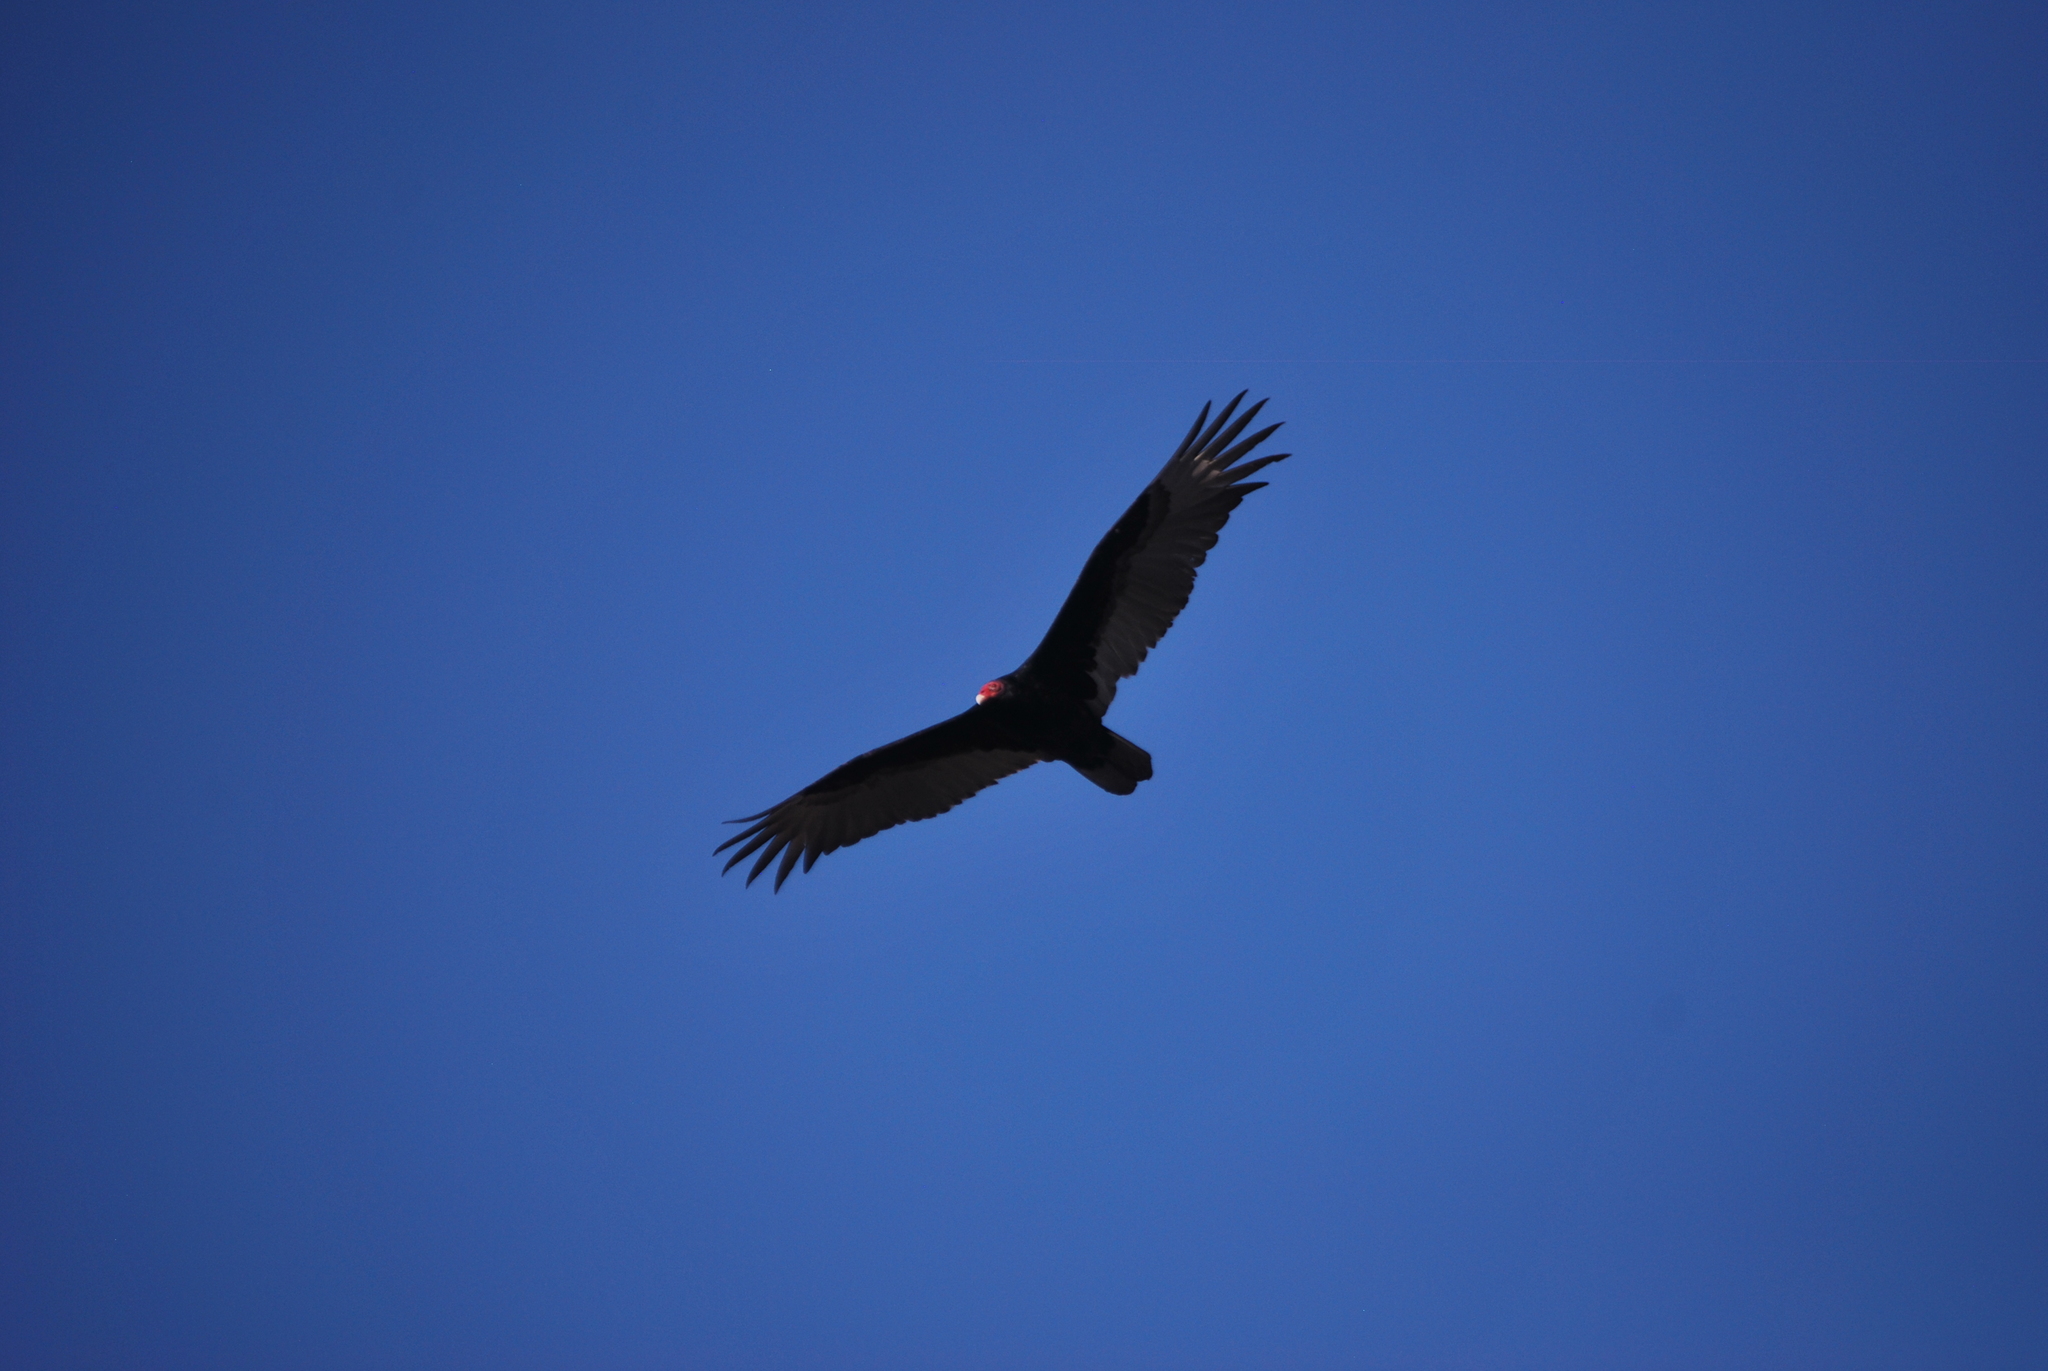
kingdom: Animalia
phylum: Chordata
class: Aves
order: Accipitriformes
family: Cathartidae
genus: Cathartes
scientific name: Cathartes aura
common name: Turkey vulture
